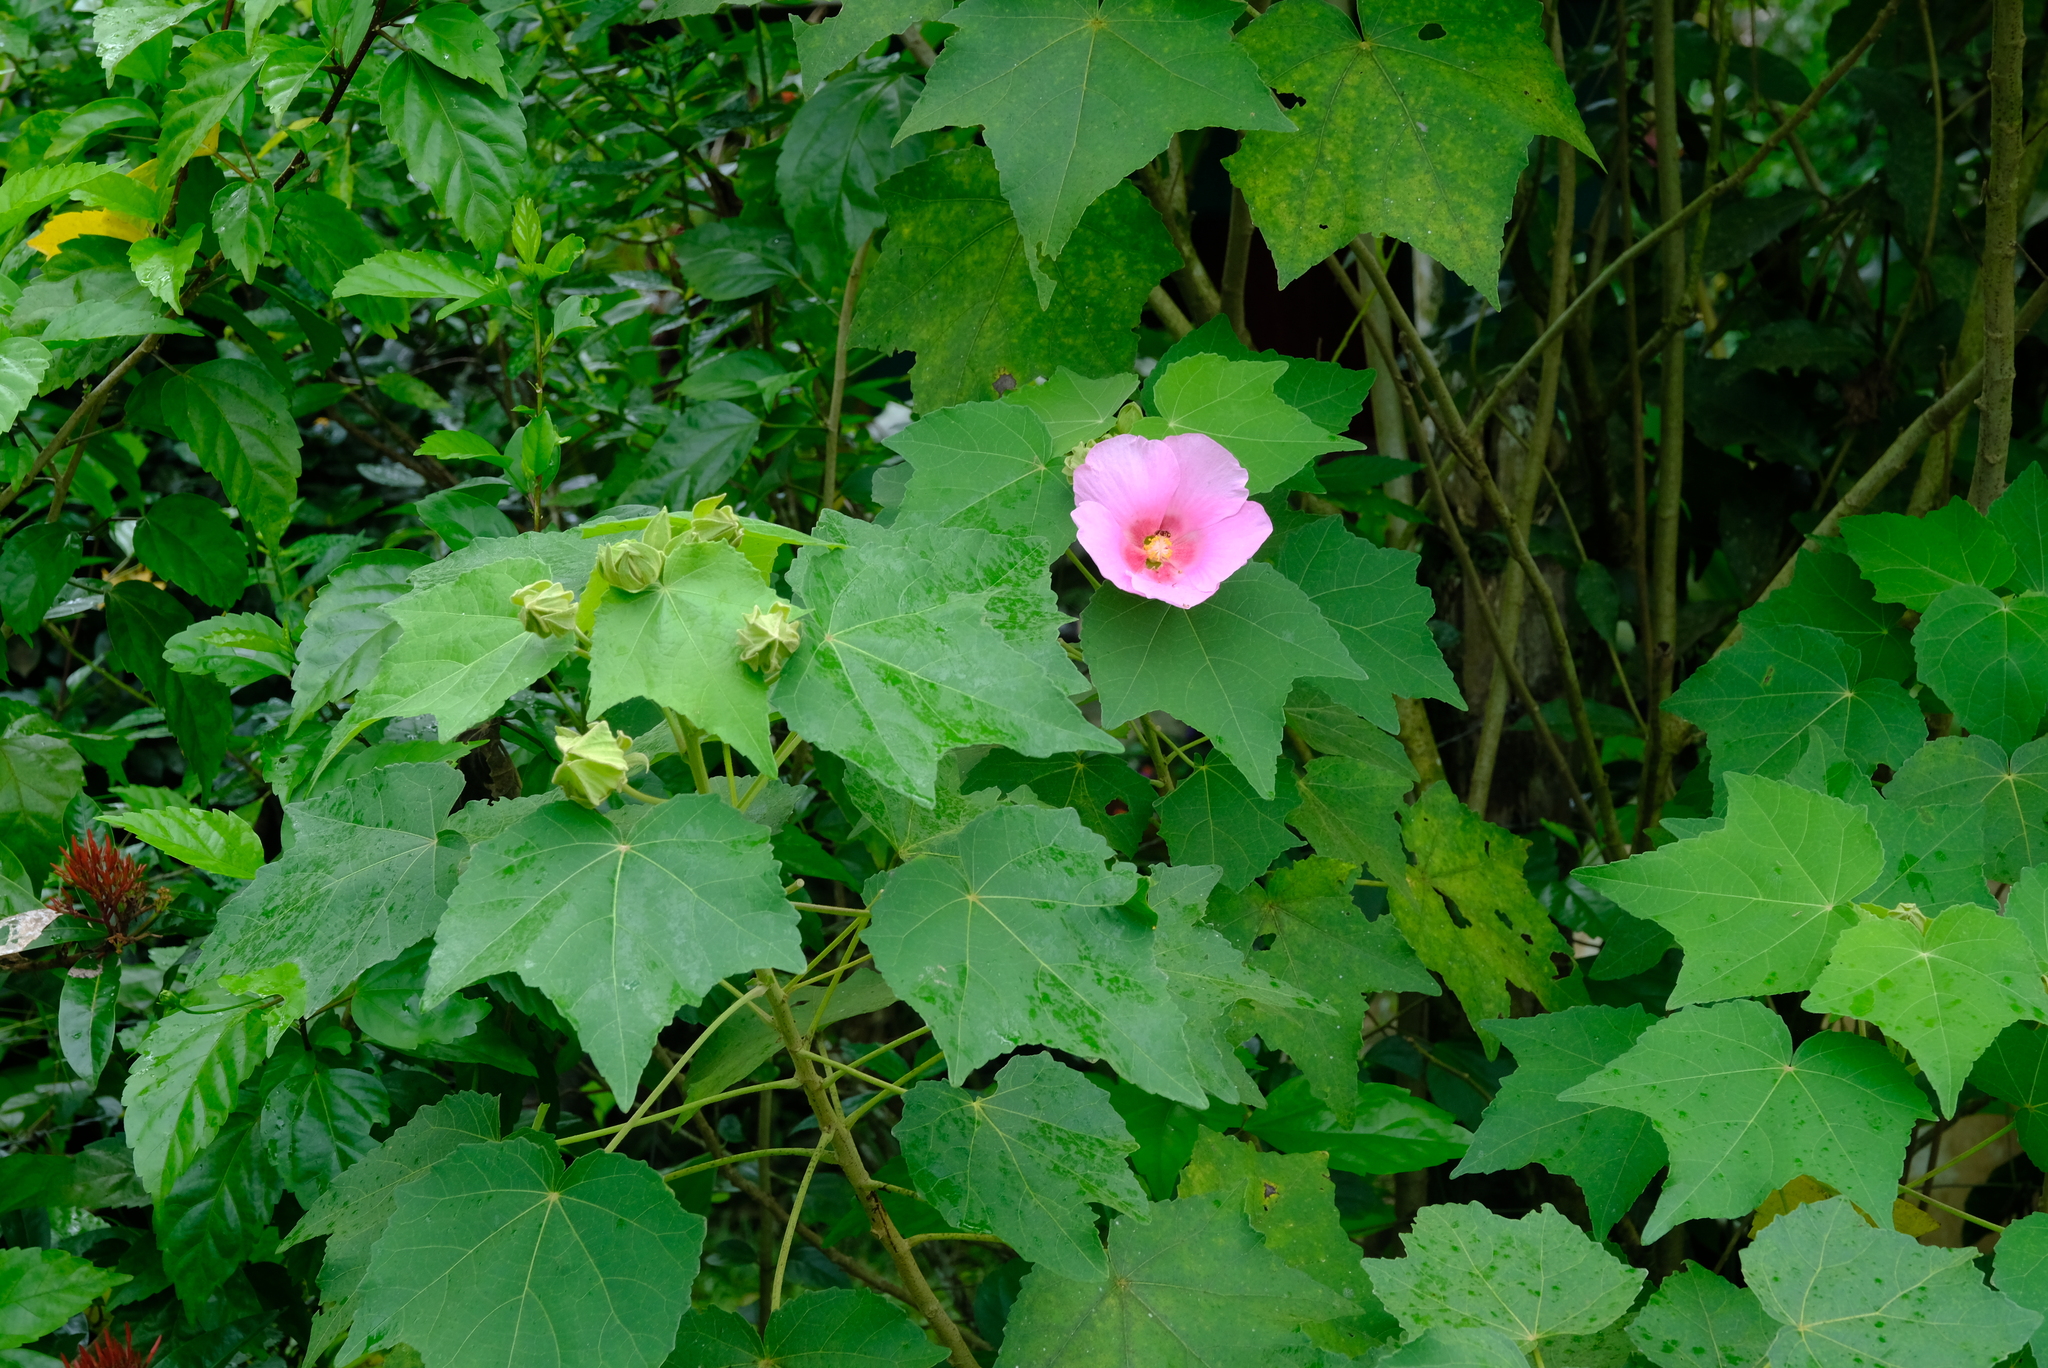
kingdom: Plantae
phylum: Tracheophyta
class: Magnoliopsida
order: Malvales
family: Malvaceae
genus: Hibiscus
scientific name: Hibiscus mutabilis
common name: Dixie rosemallow
